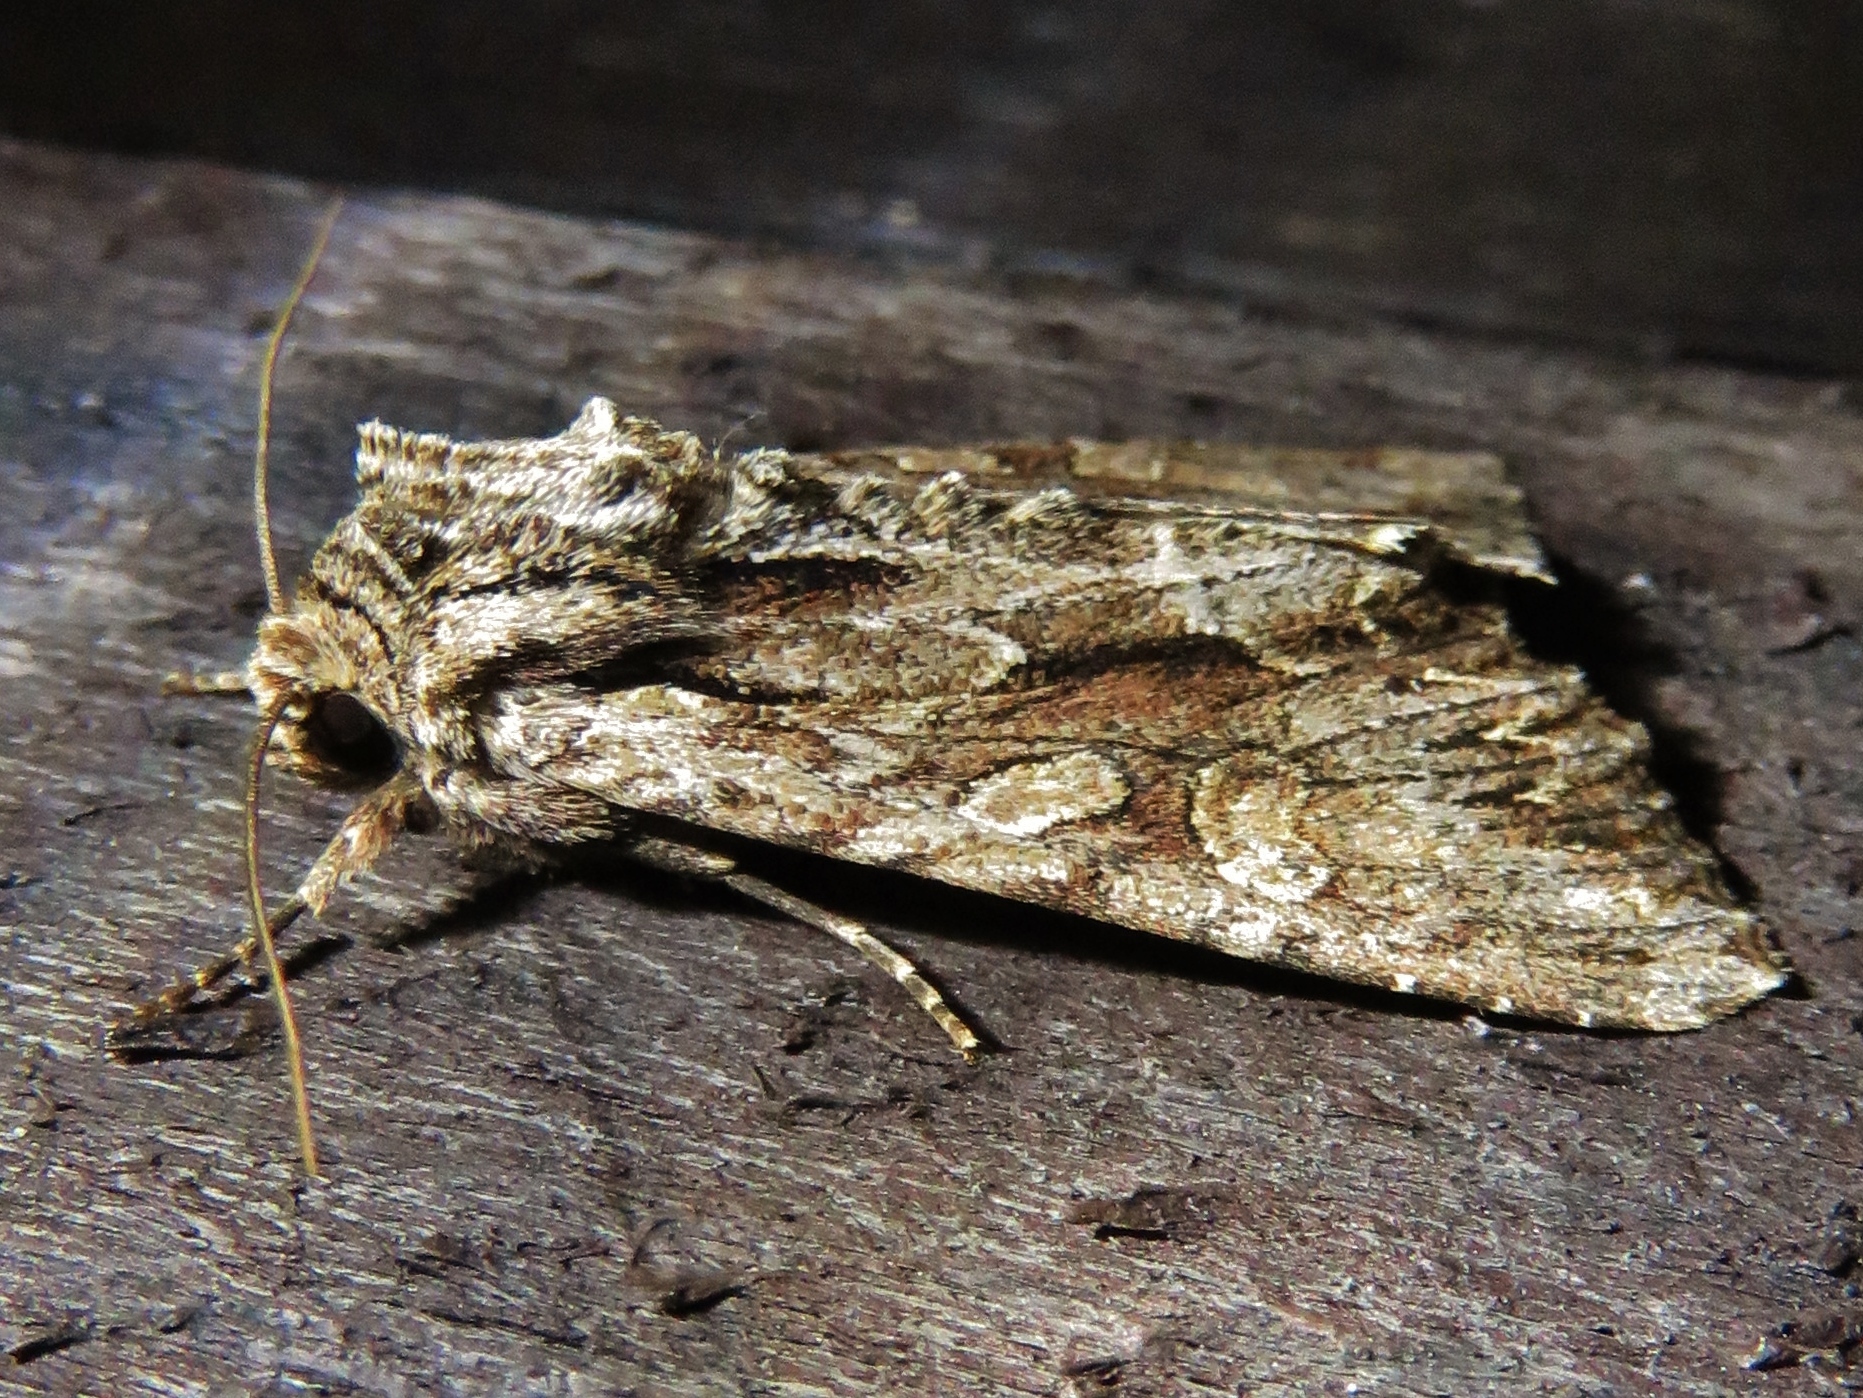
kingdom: Animalia
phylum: Arthropoda
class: Insecta
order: Lepidoptera
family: Noctuidae
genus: Apamea
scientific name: Apamea monoglypha
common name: Dark arches
